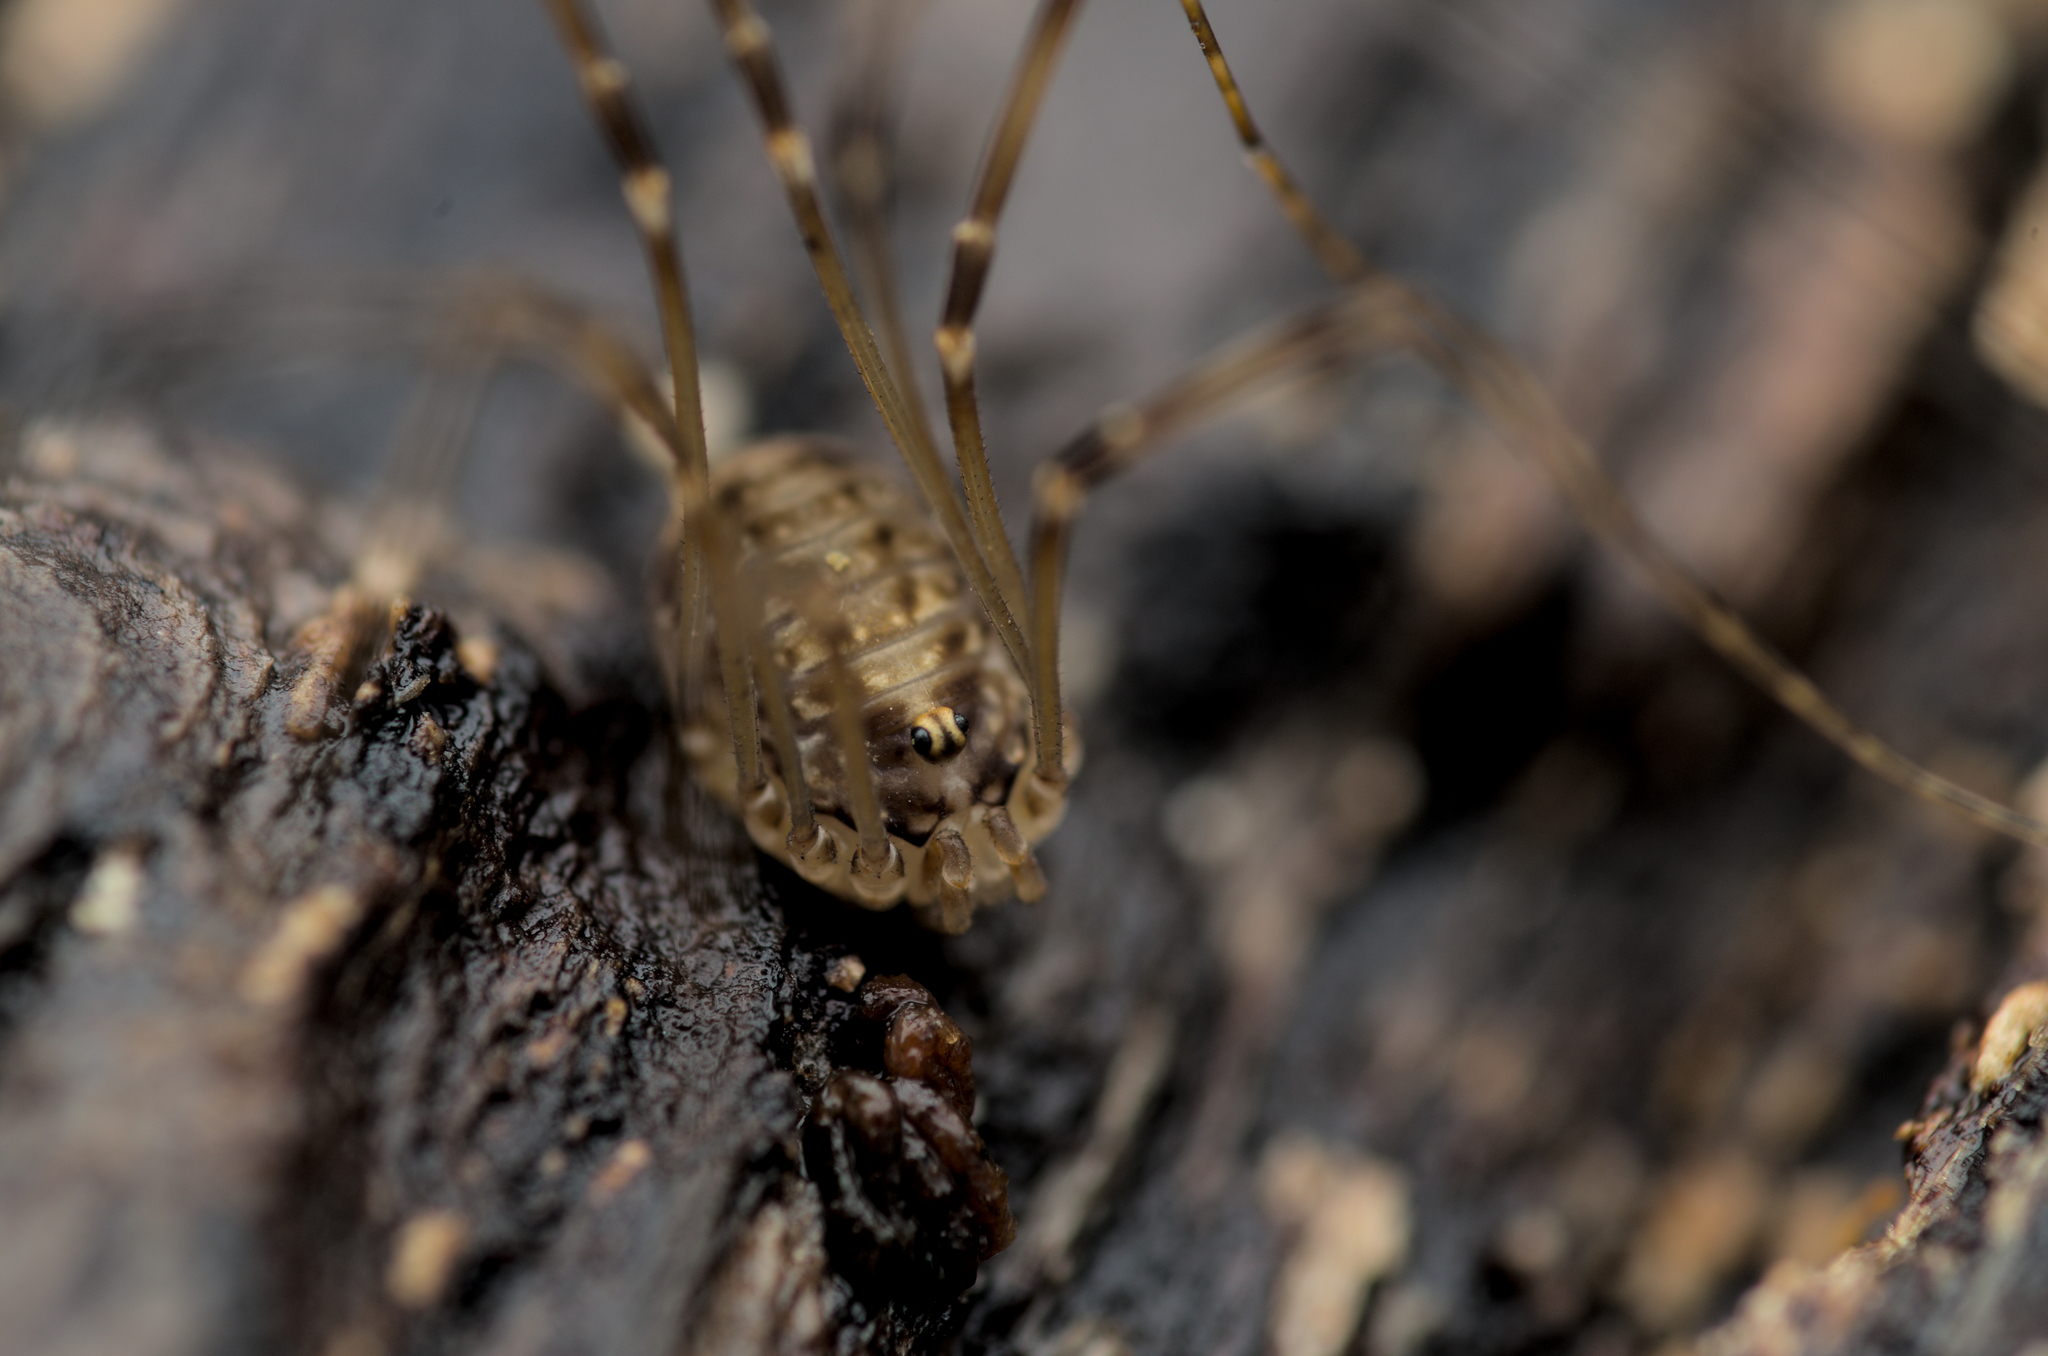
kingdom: Animalia
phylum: Arthropoda
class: Arachnida
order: Opiliones
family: Sclerosomatidae
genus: Leiobunum
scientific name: Leiobunum blackwalli
